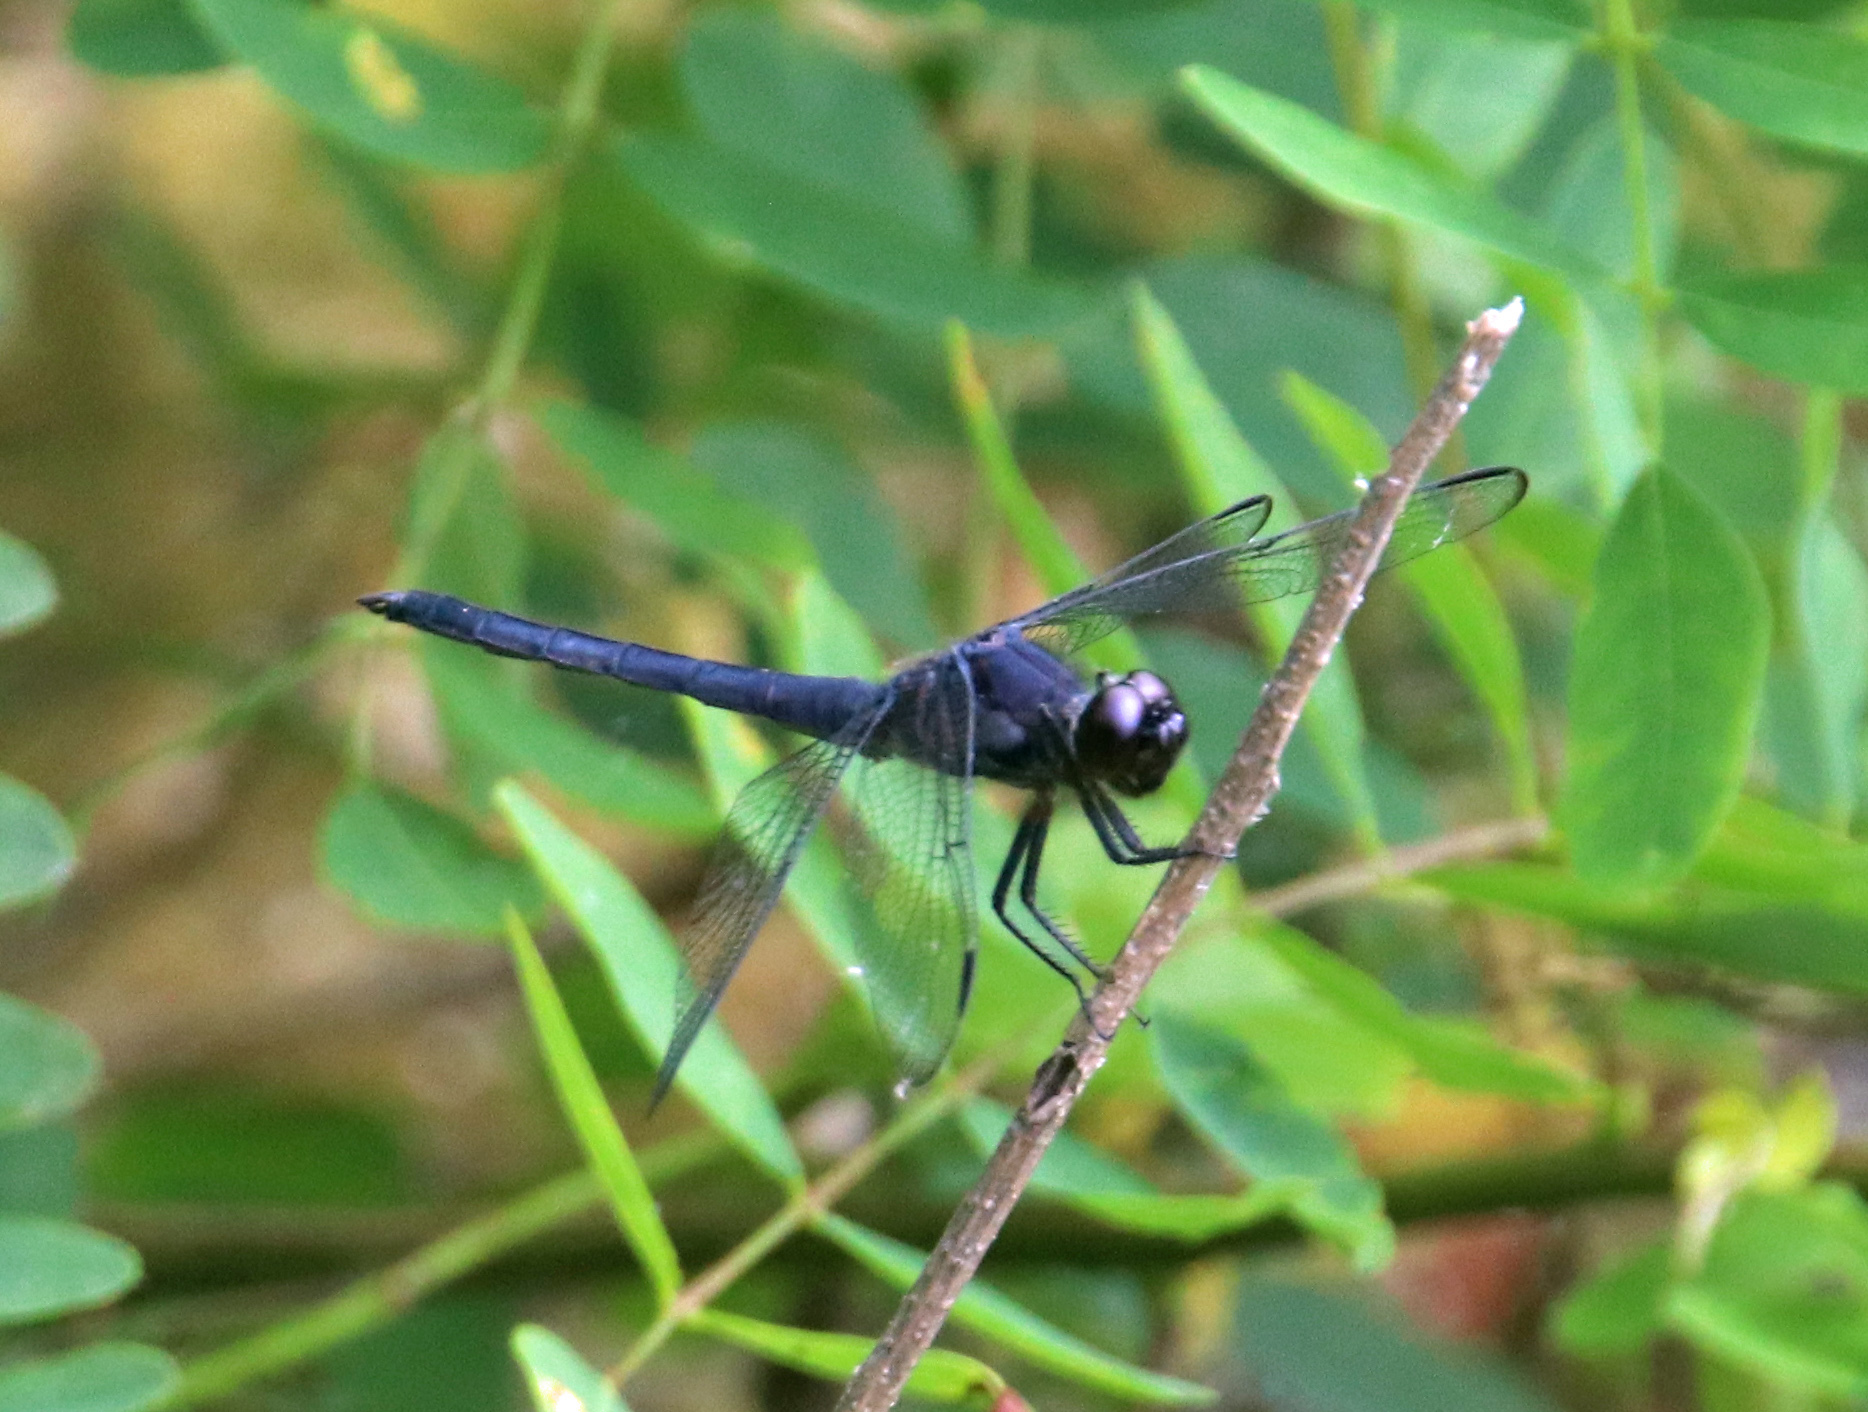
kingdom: Animalia
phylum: Arthropoda
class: Insecta
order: Odonata
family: Libellulidae
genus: Libellula
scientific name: Libellula incesta
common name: Slaty skimmer
